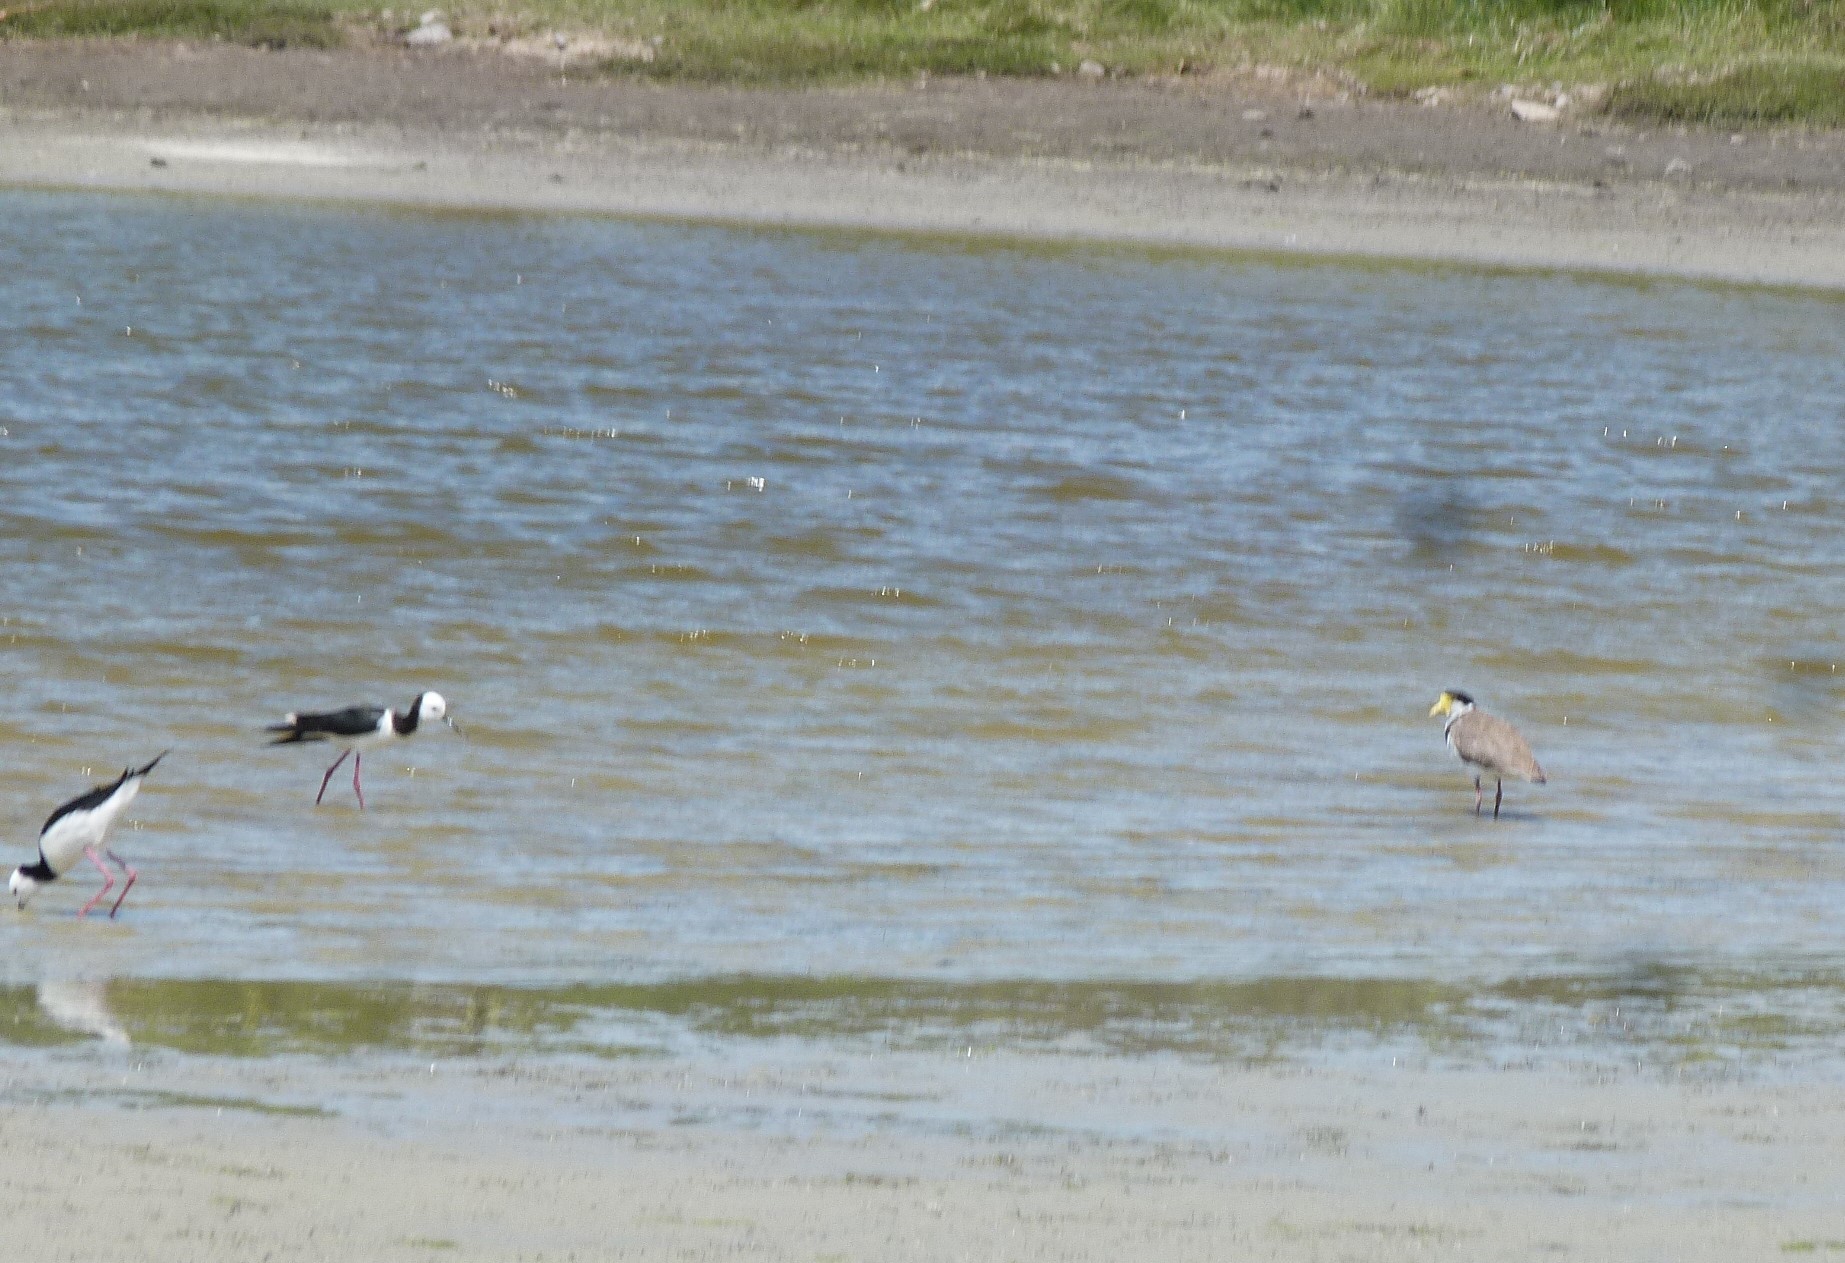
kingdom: Animalia
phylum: Chordata
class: Aves
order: Charadriiformes
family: Charadriidae
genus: Vanellus
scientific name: Vanellus miles
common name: Masked lapwing
